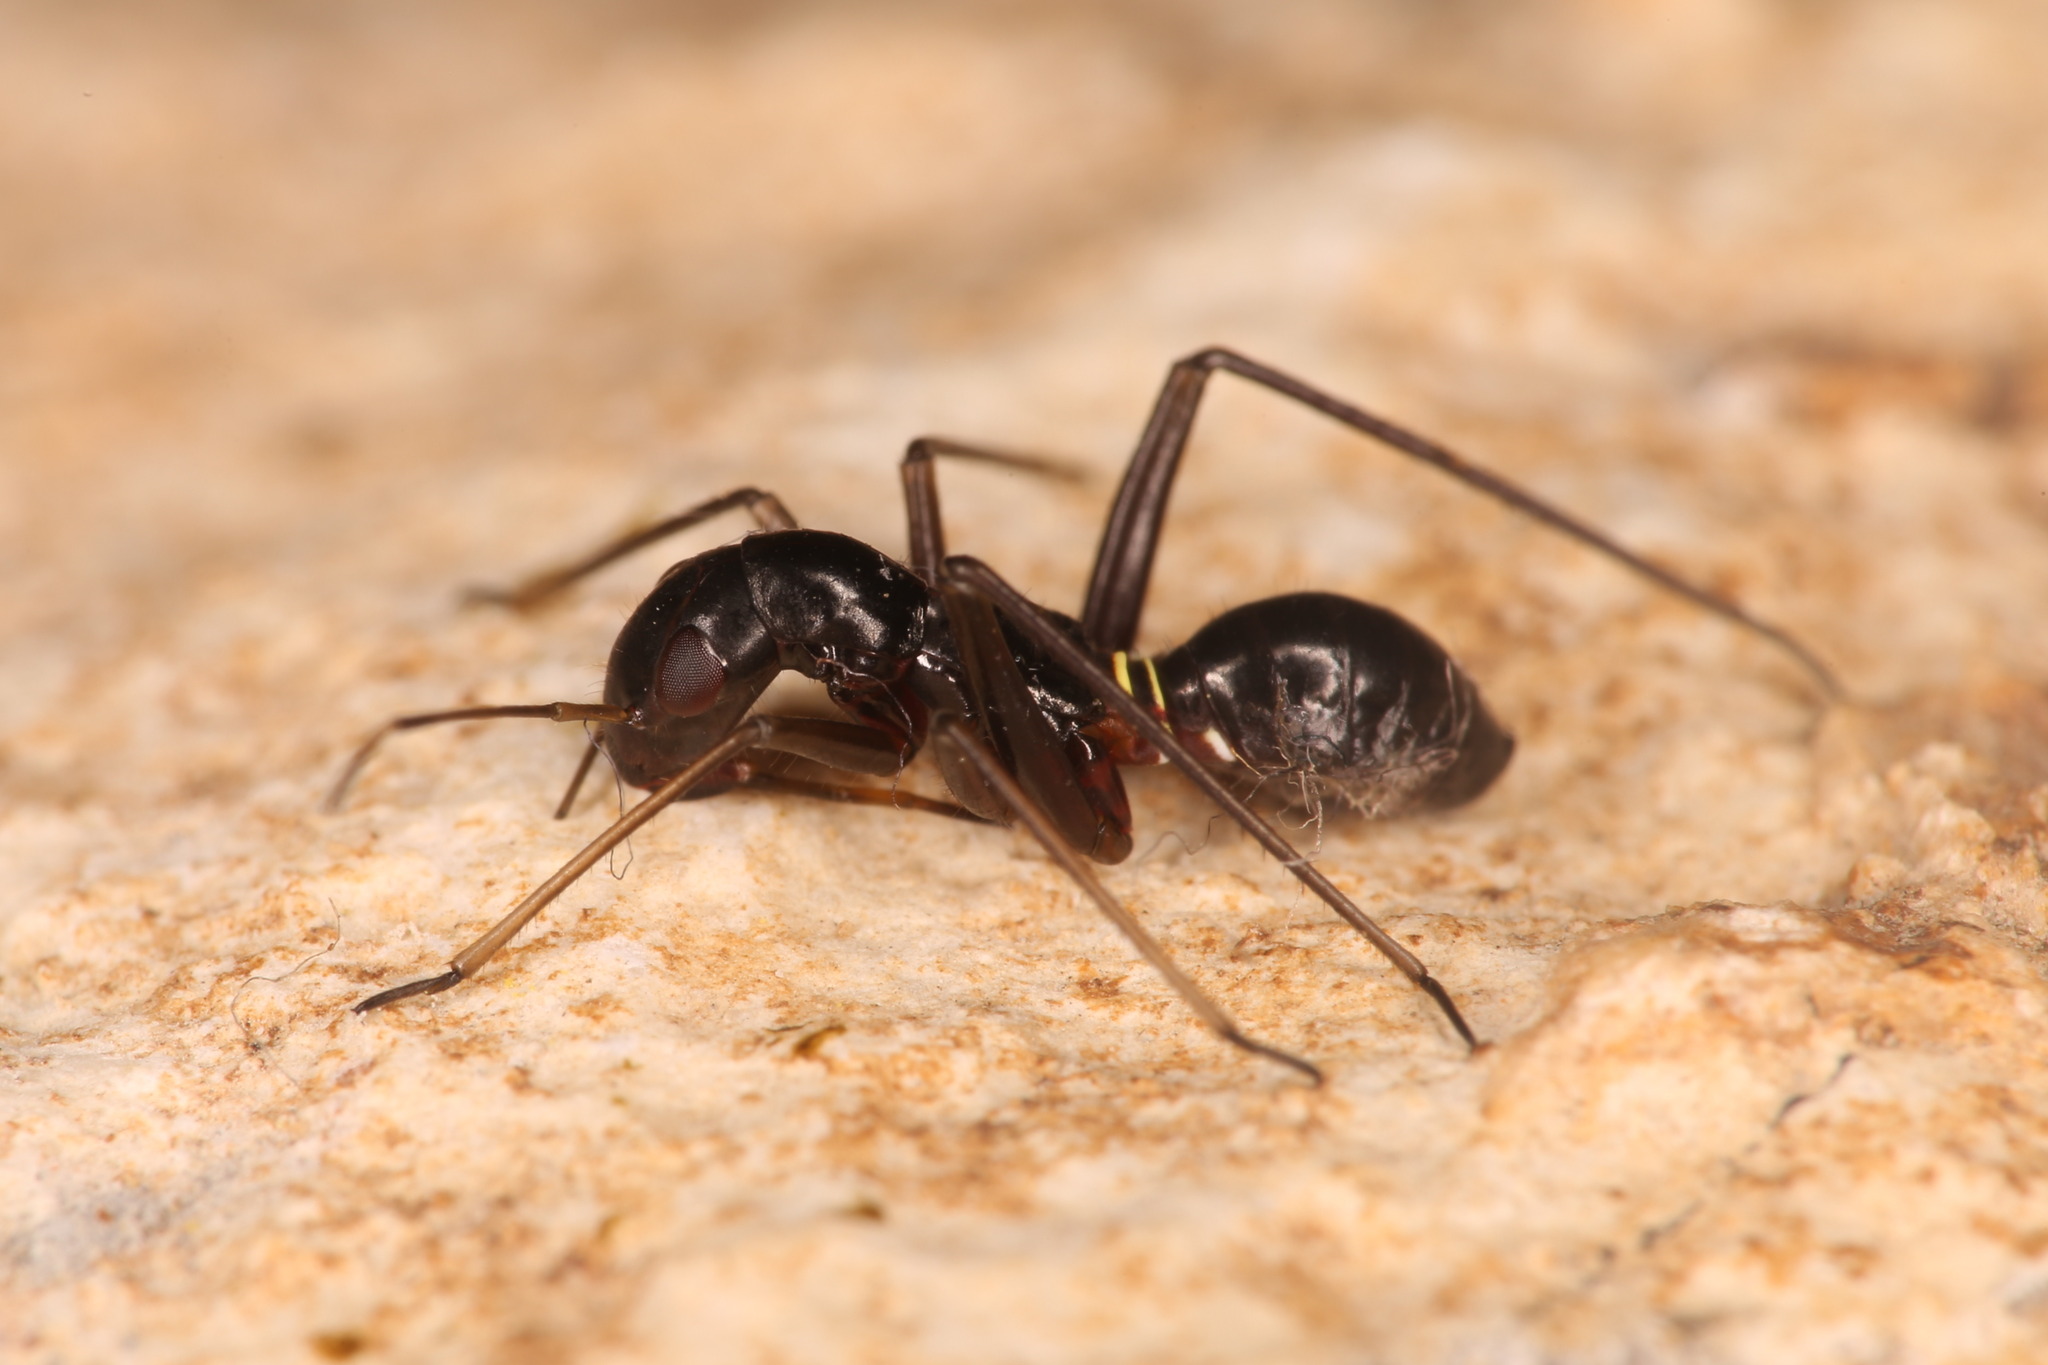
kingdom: Animalia
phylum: Arthropoda
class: Insecta
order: Hemiptera
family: Nabidae
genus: Himacerus
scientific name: Himacerus mirmicoides
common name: Ant damsel bug
